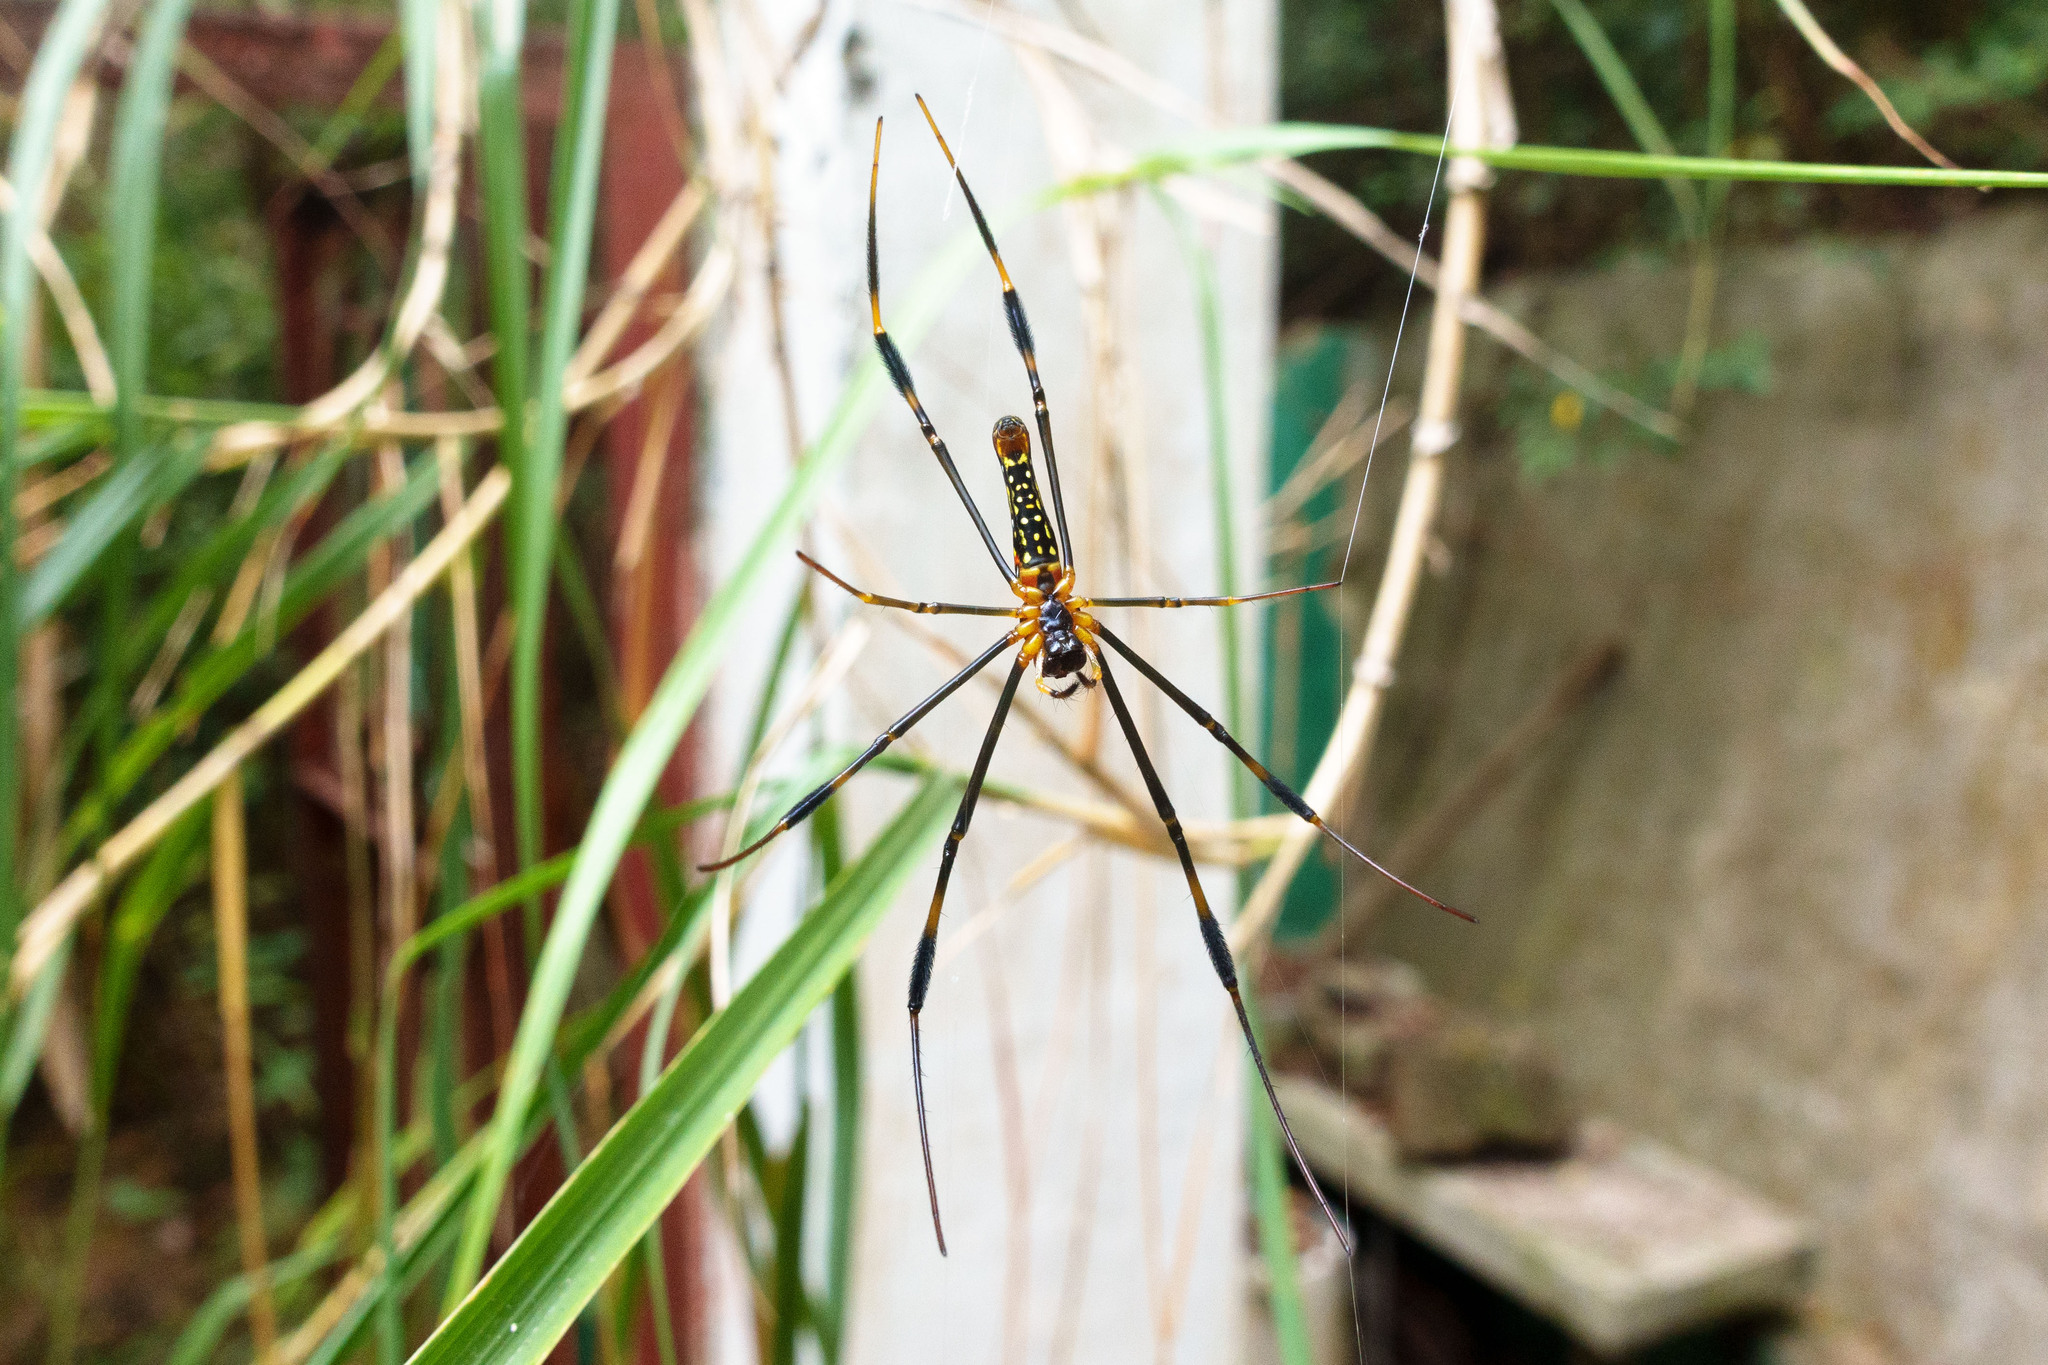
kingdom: Animalia
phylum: Arthropoda
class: Arachnida
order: Araneae
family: Araneidae
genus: Nephila
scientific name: Nephila pilipes
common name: Giant golden orb weaver
